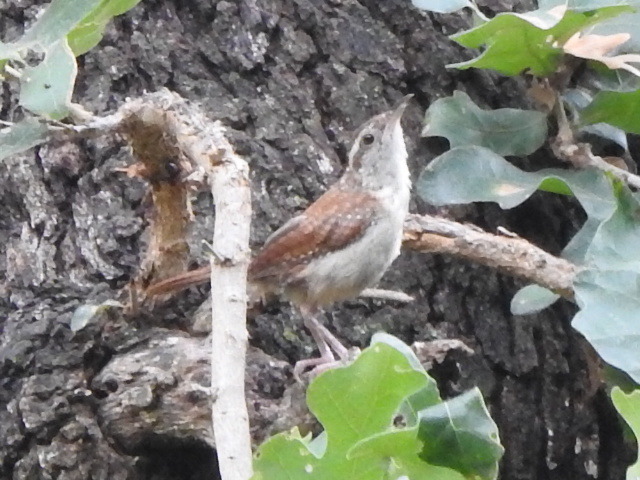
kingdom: Animalia
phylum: Chordata
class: Aves
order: Passeriformes
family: Troglodytidae
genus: Thryothorus
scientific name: Thryothorus ludovicianus
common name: Carolina wren
